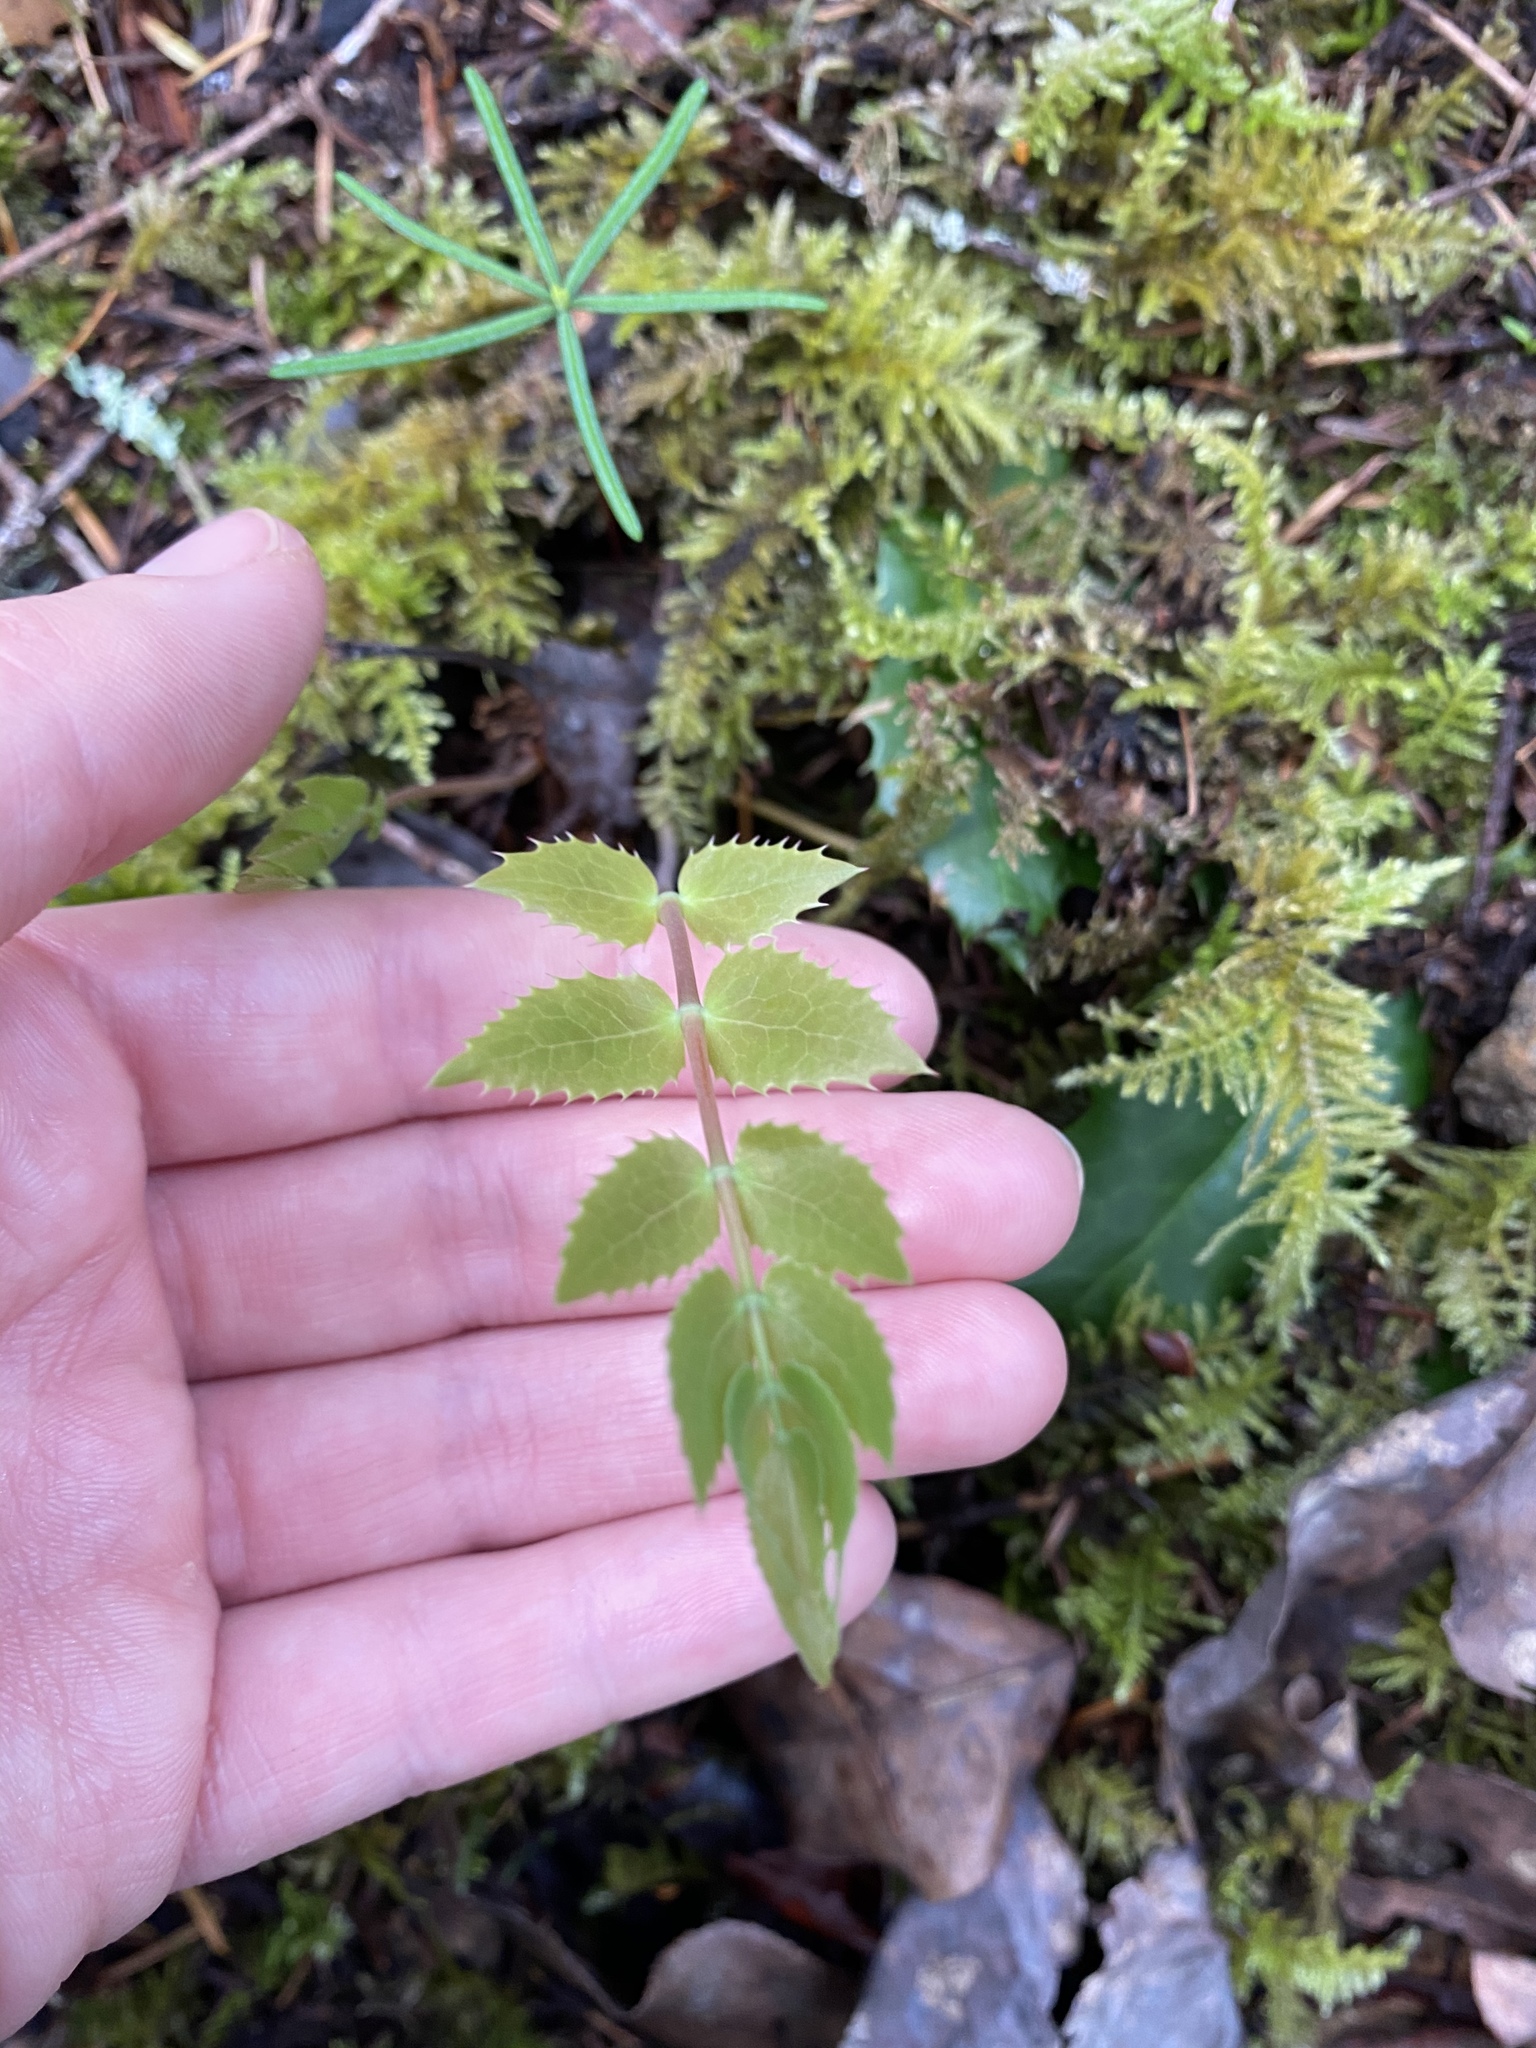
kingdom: Plantae
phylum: Tracheophyta
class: Magnoliopsida
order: Ranunculales
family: Berberidaceae
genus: Mahonia
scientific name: Mahonia nervosa
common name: Cascade oregon-grape
